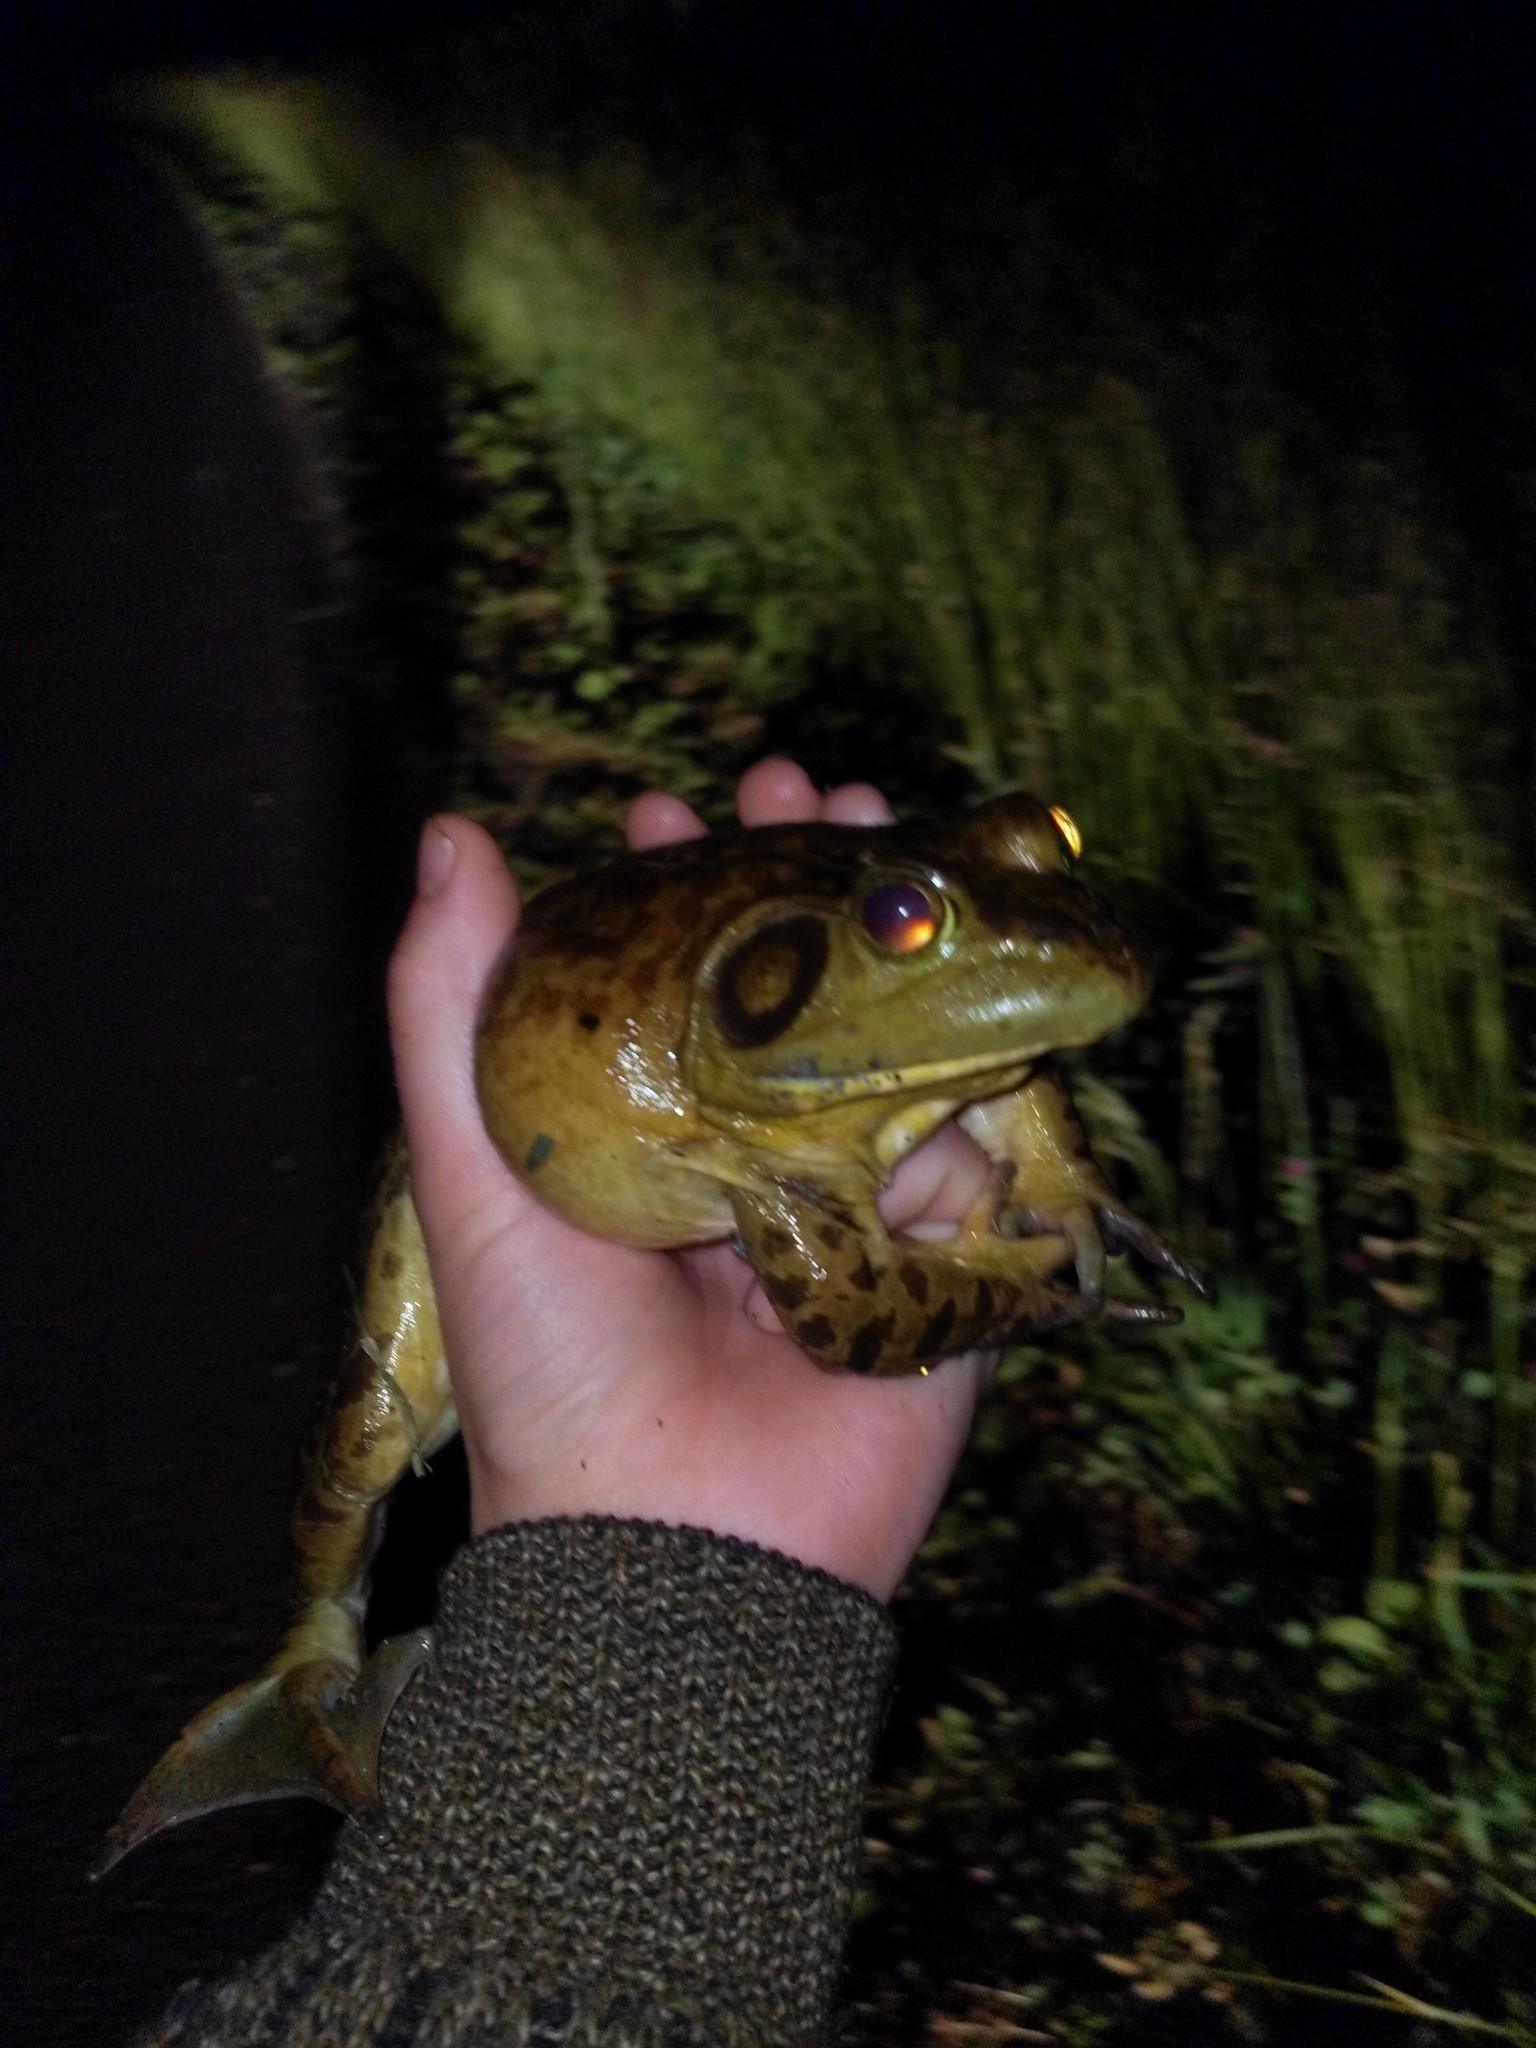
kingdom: Animalia
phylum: Chordata
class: Amphibia
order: Anura
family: Ranidae
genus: Lithobates
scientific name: Lithobates catesbeianus
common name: American bullfrog
